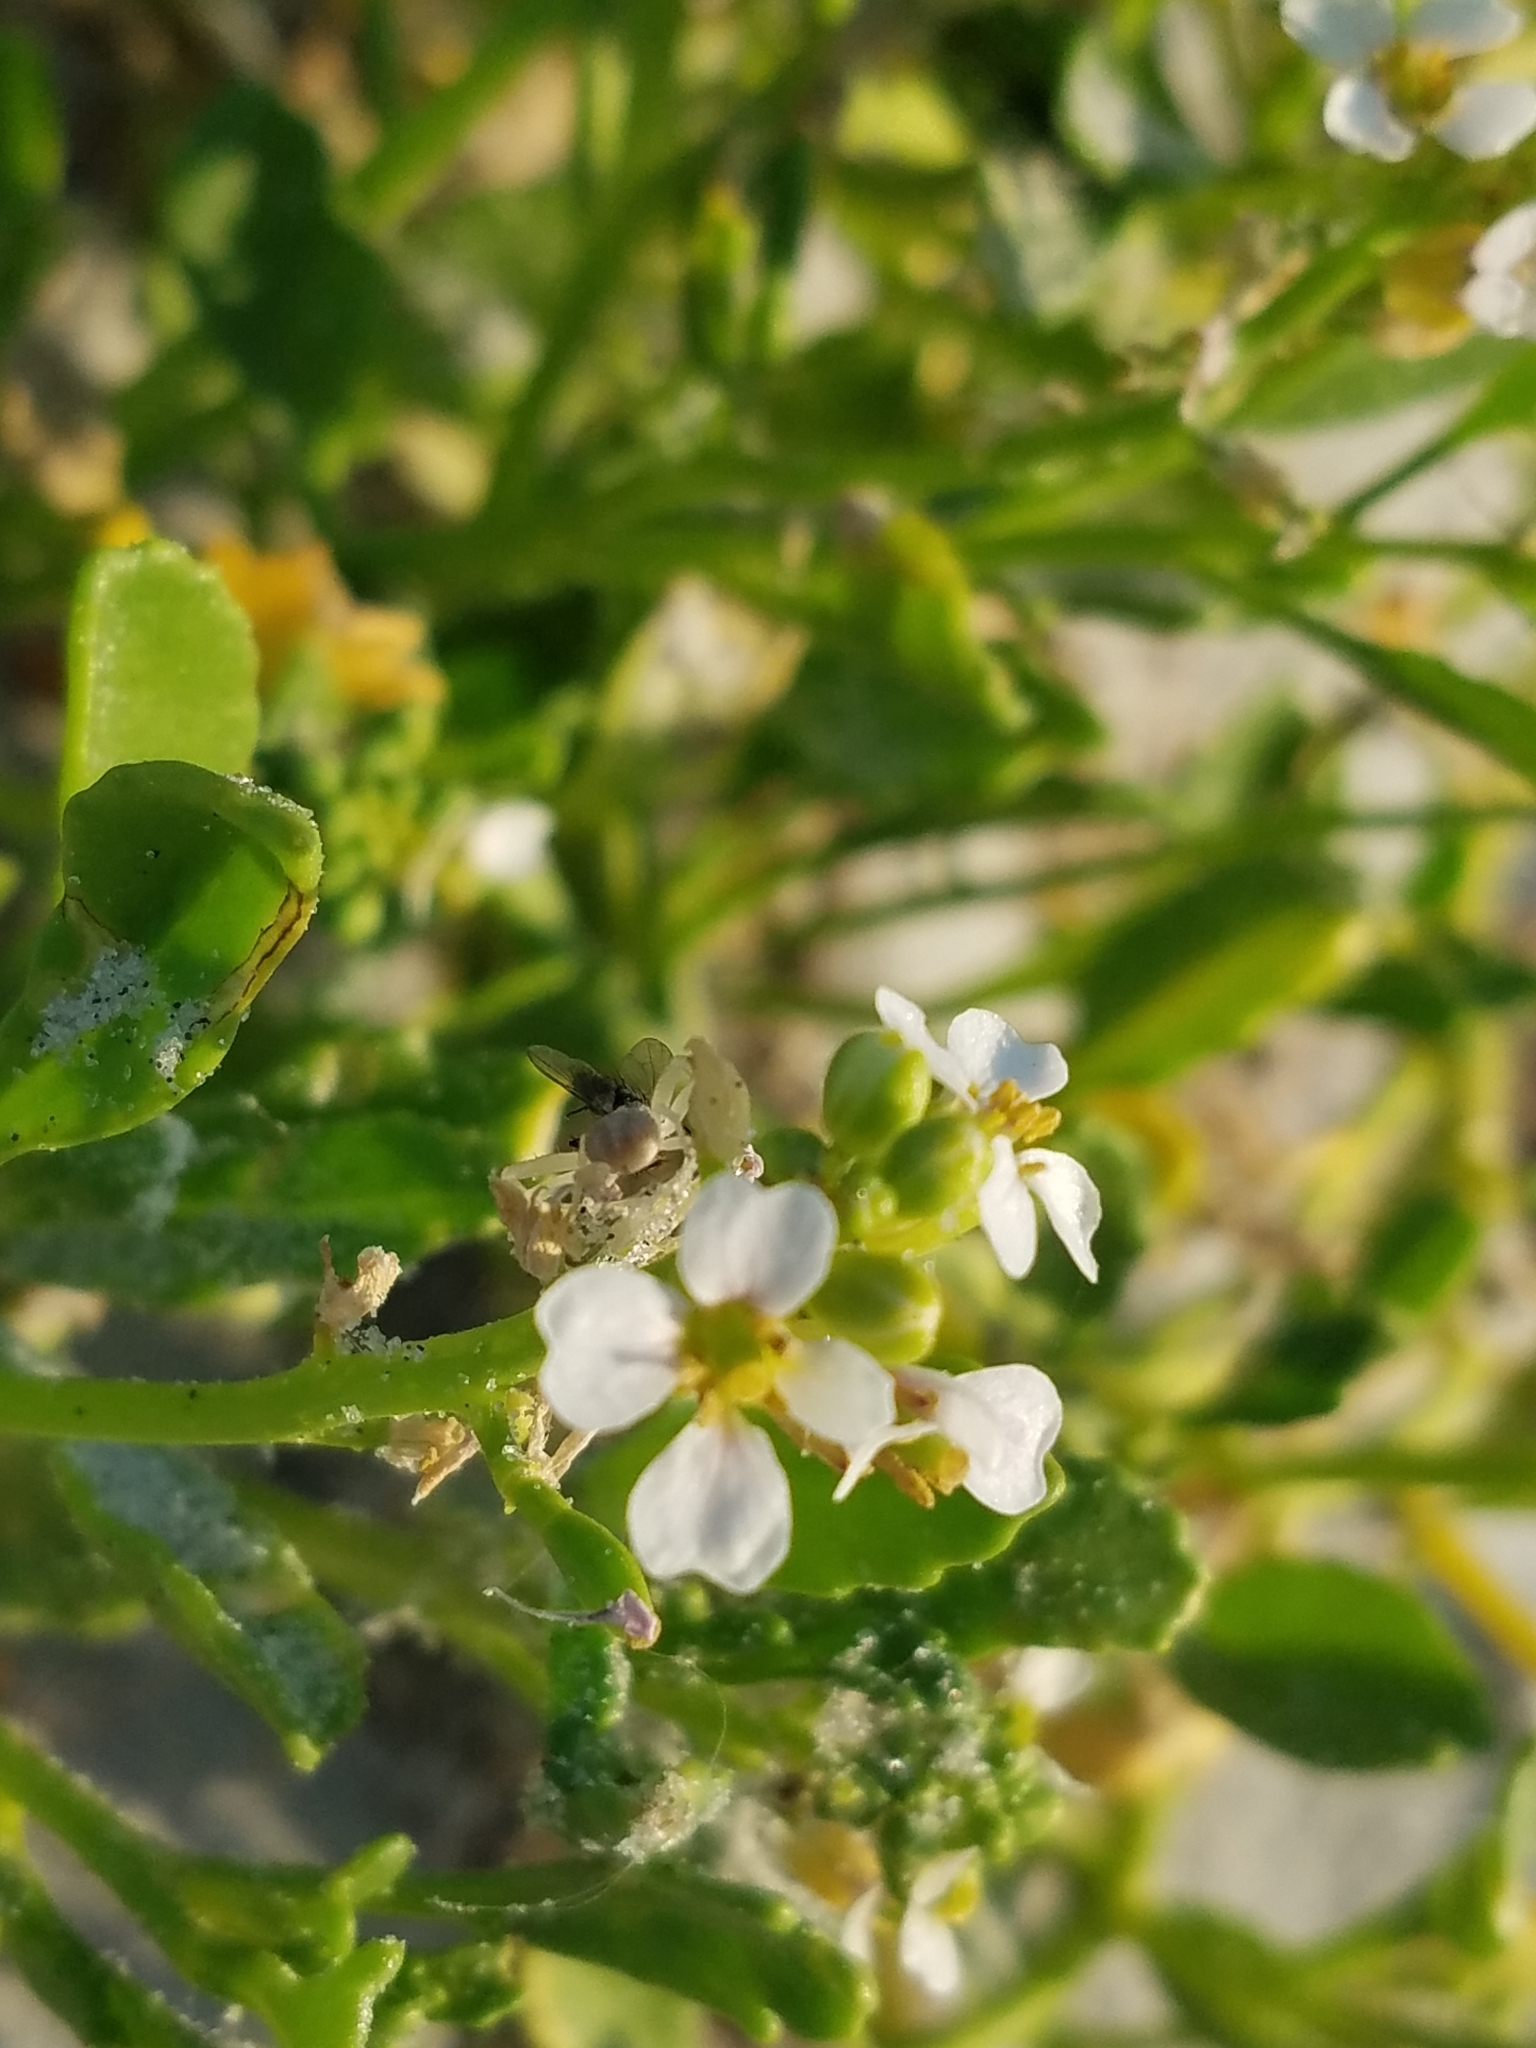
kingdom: Plantae
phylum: Tracheophyta
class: Magnoliopsida
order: Brassicales
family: Brassicaceae
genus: Cakile
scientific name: Cakile edentula
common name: American sea rocket
